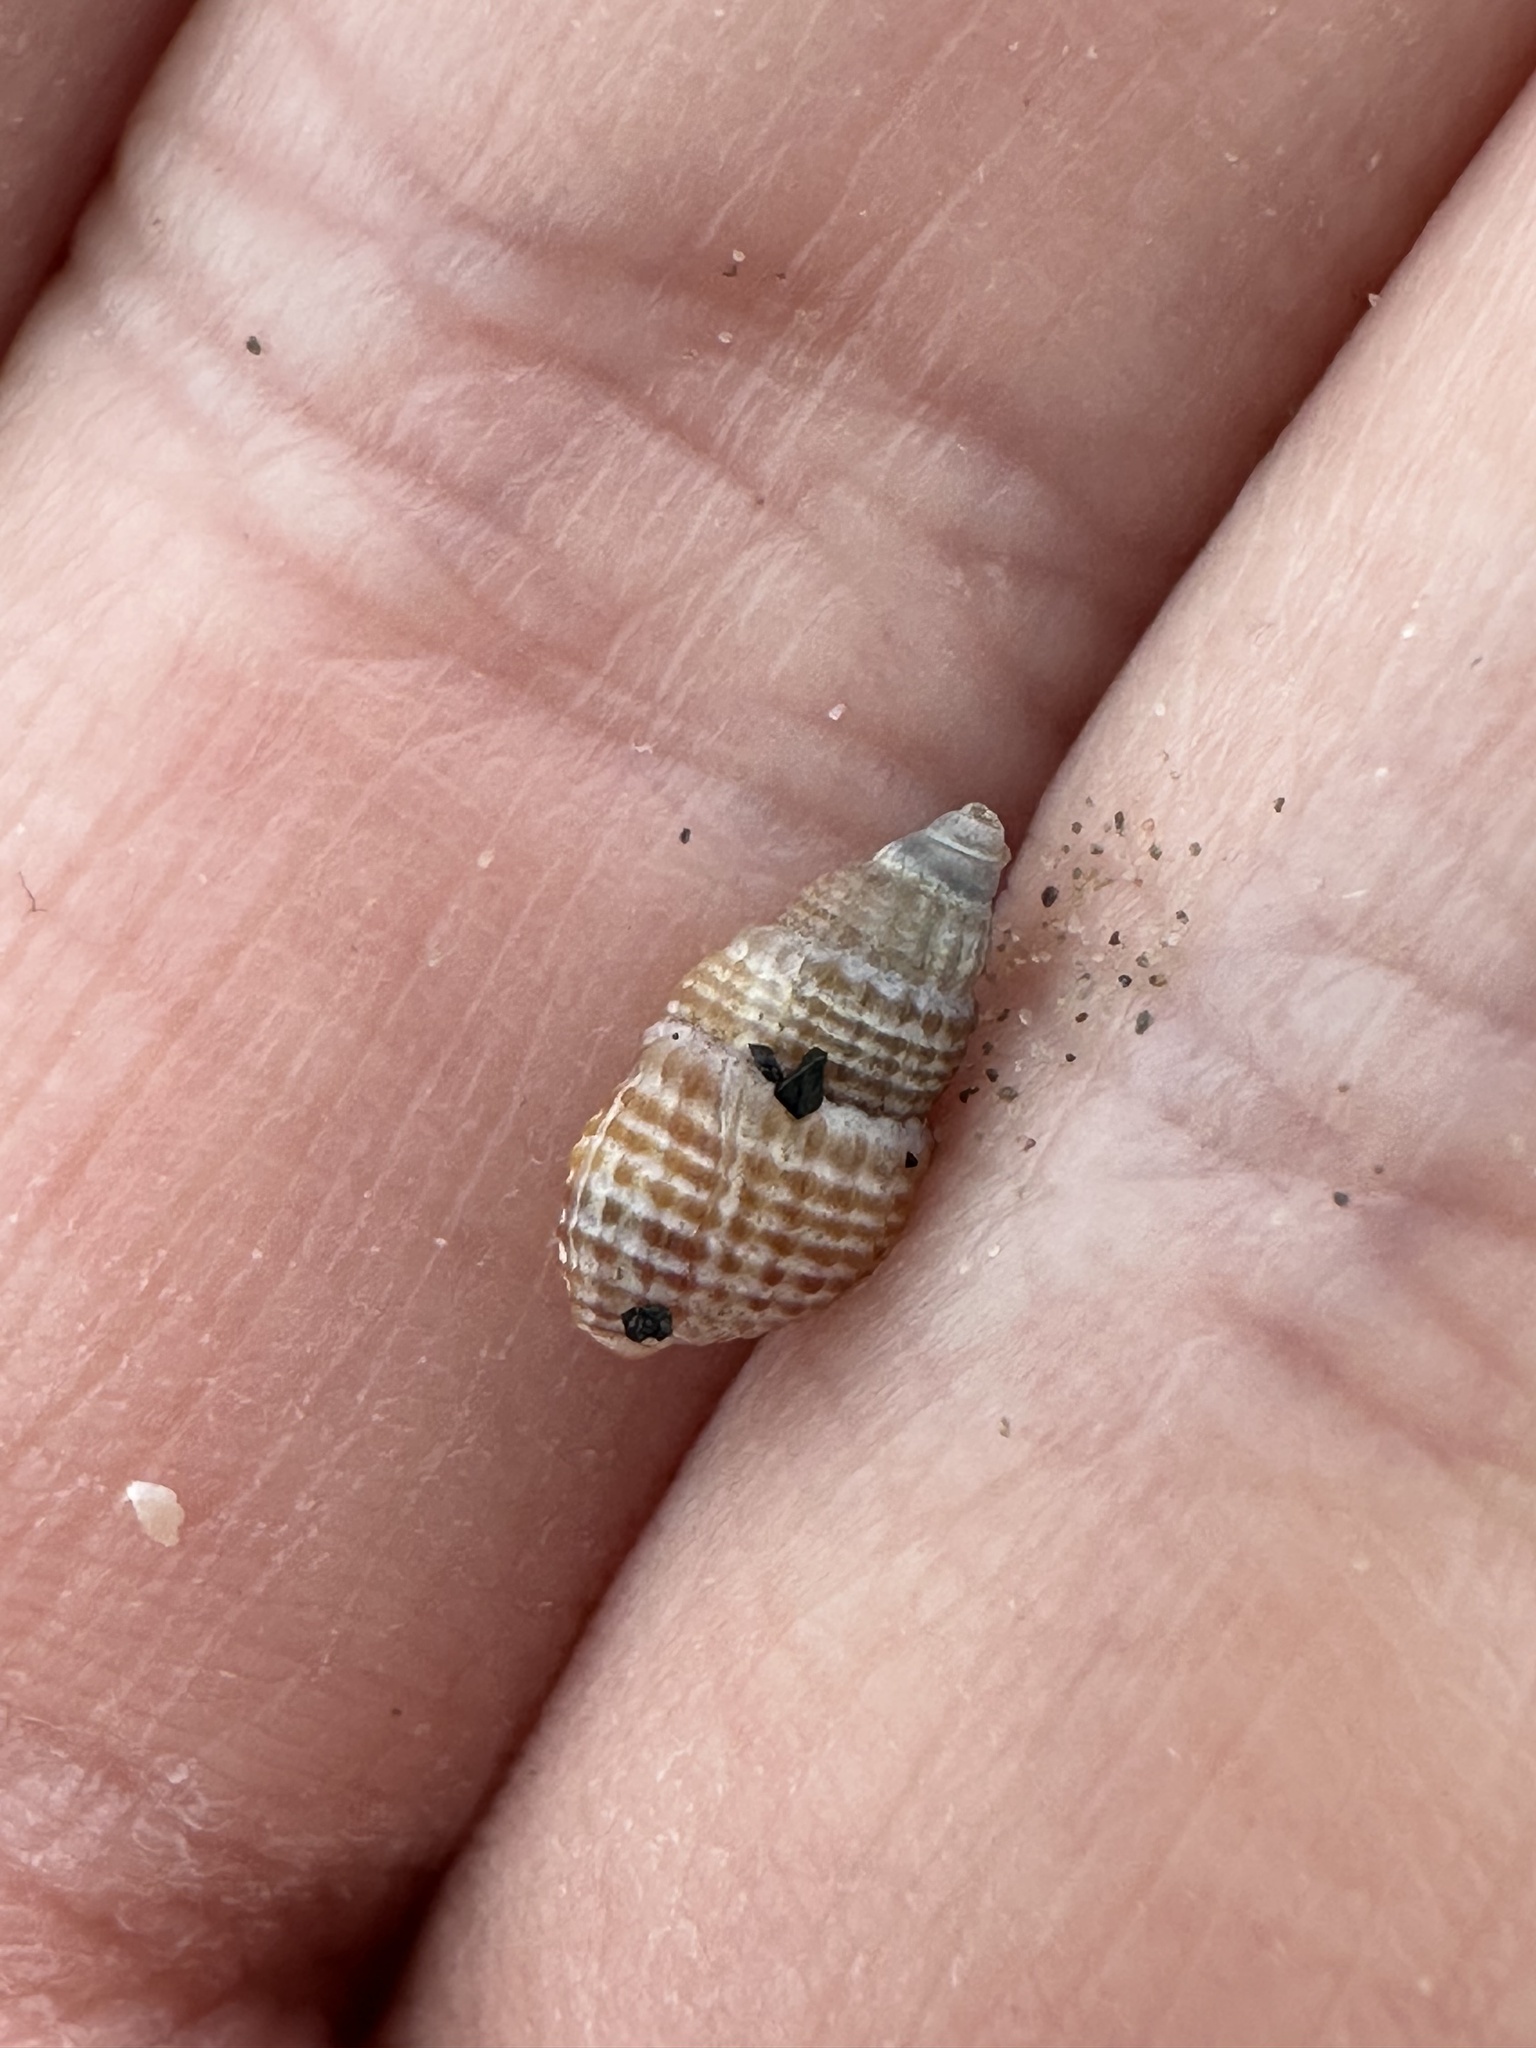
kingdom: Animalia
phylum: Mollusca
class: Gastropoda
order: Neogastropoda
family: Nassariidae
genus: Ilyanassa
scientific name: Ilyanassa trivittata
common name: Three-line mudsnail
